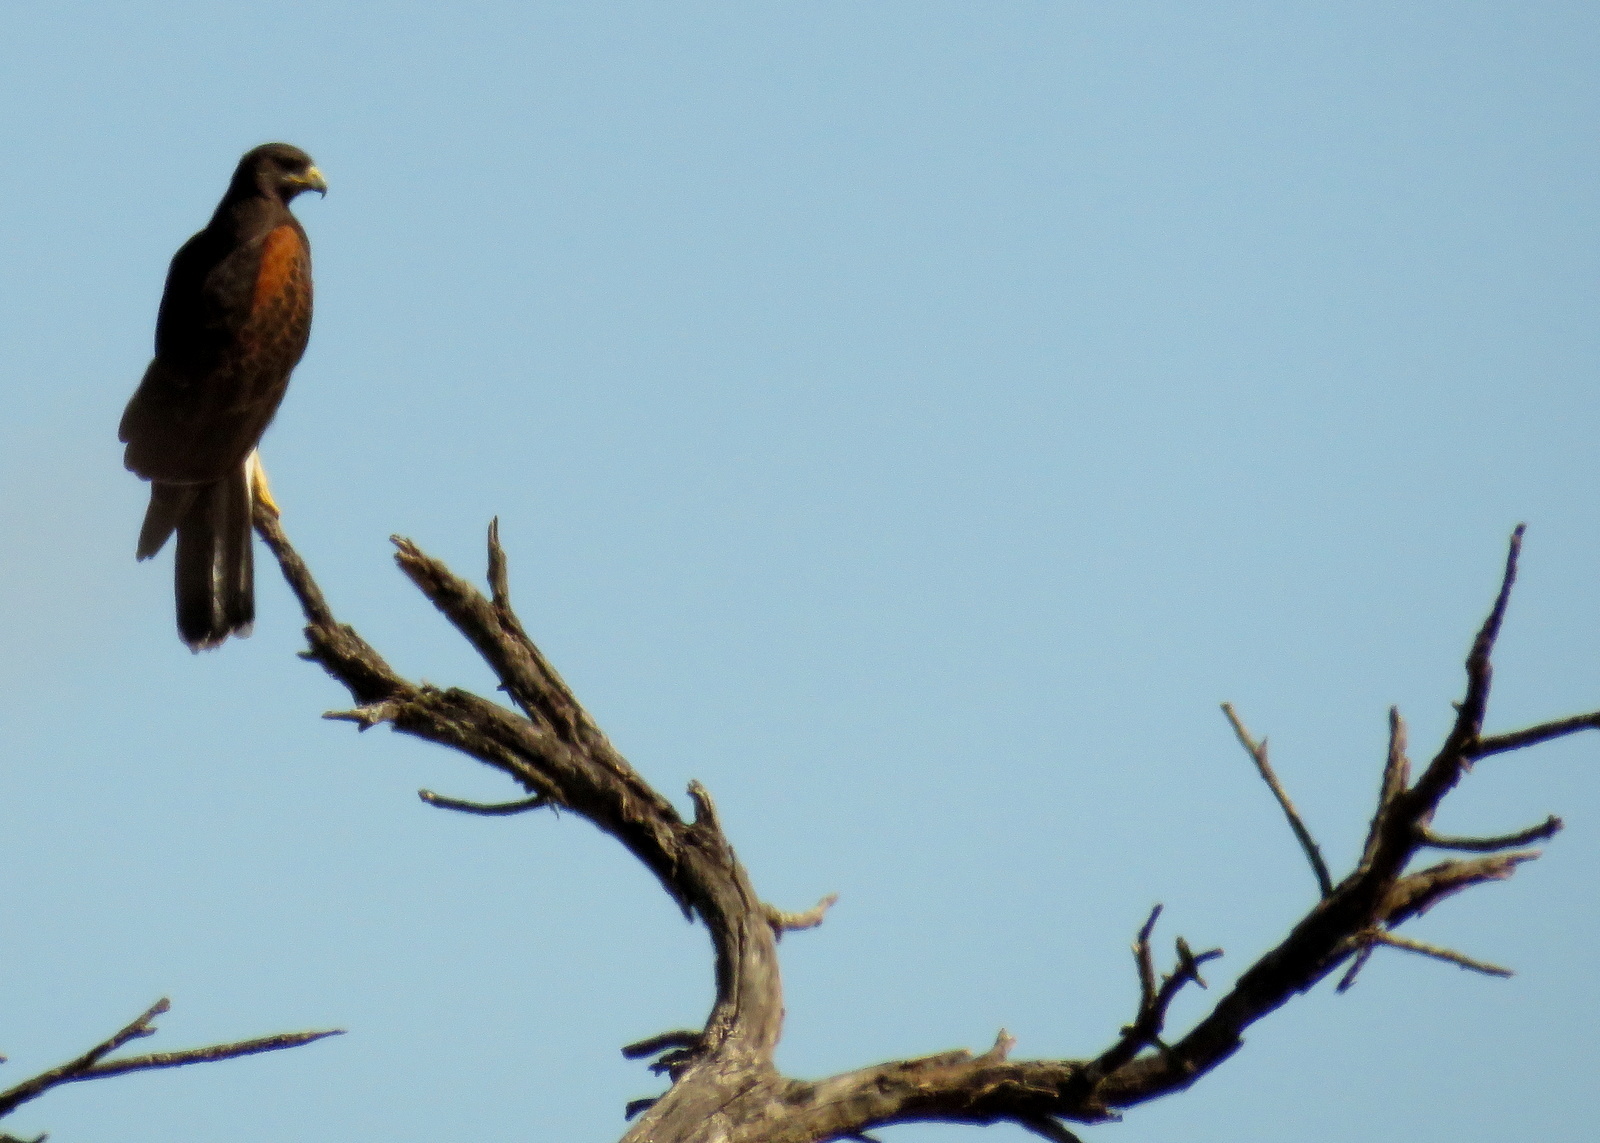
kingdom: Animalia
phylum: Chordata
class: Aves
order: Accipitriformes
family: Accipitridae
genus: Parabuteo
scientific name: Parabuteo unicinctus
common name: Harris's hawk
